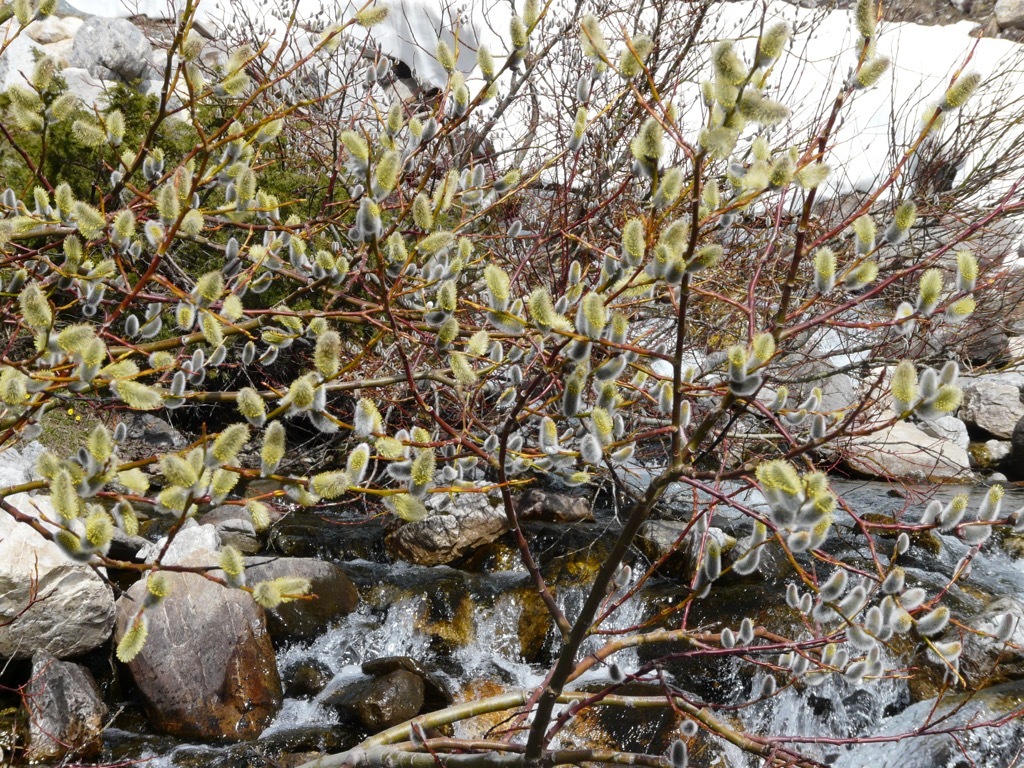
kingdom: Plantae
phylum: Tracheophyta
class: Magnoliopsida
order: Malpighiales
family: Salicaceae
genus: Salix
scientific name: Salix daphnoides
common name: European violet-willow
